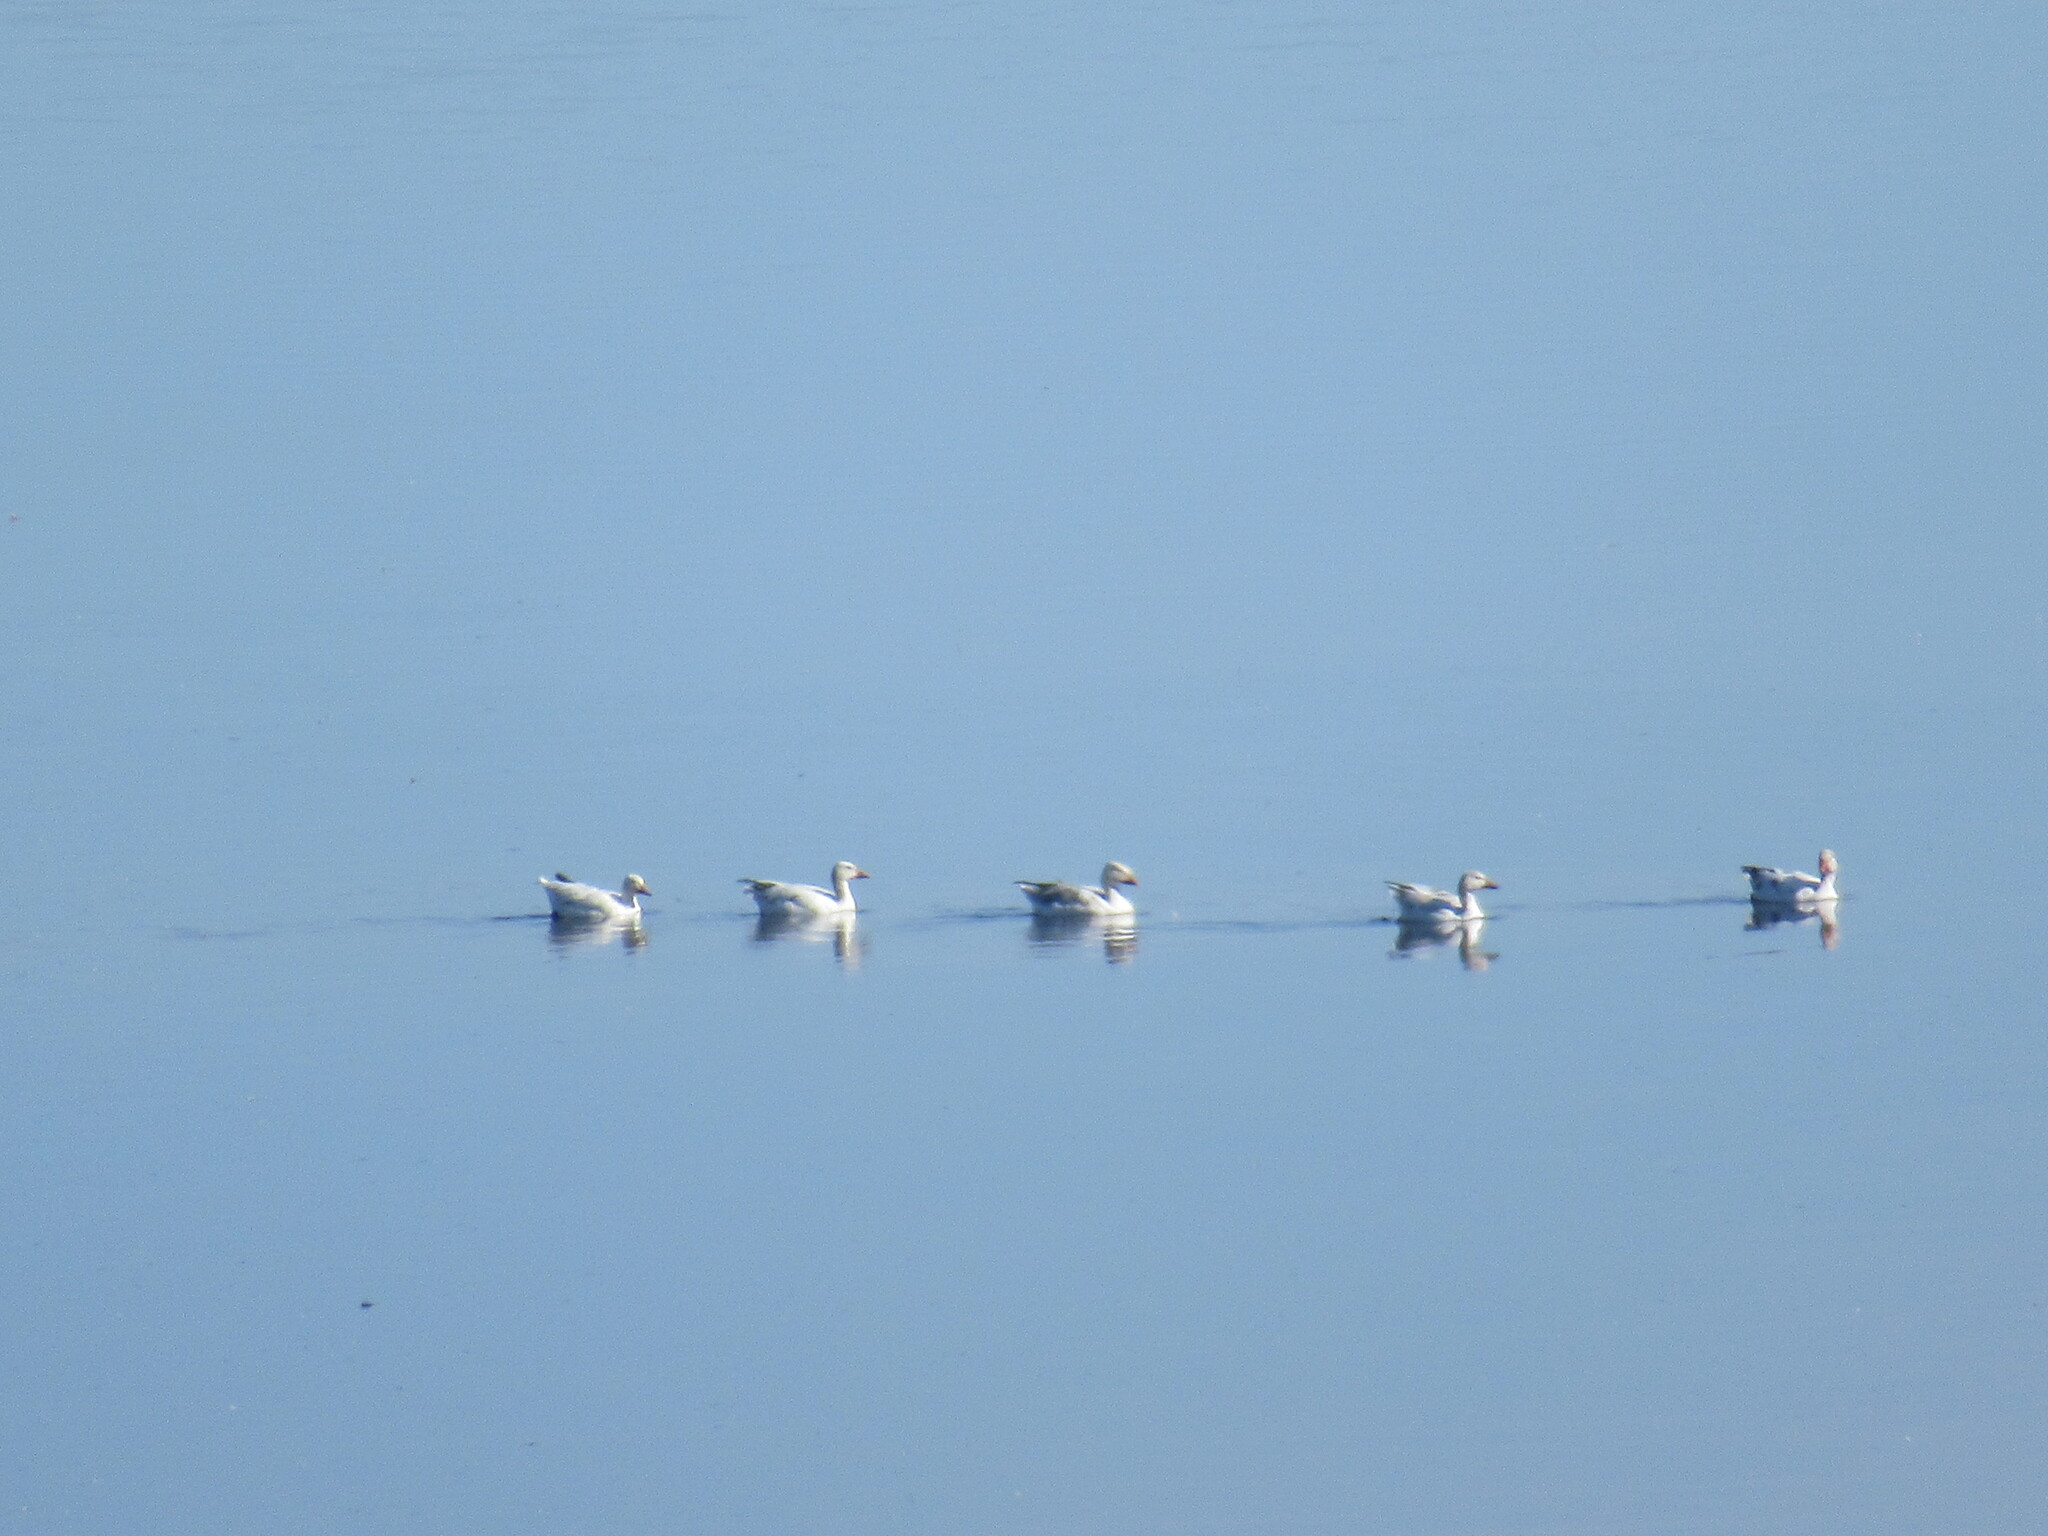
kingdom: Animalia
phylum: Chordata
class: Aves
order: Anseriformes
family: Anatidae
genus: Anser
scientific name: Anser caerulescens
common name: Snow goose
